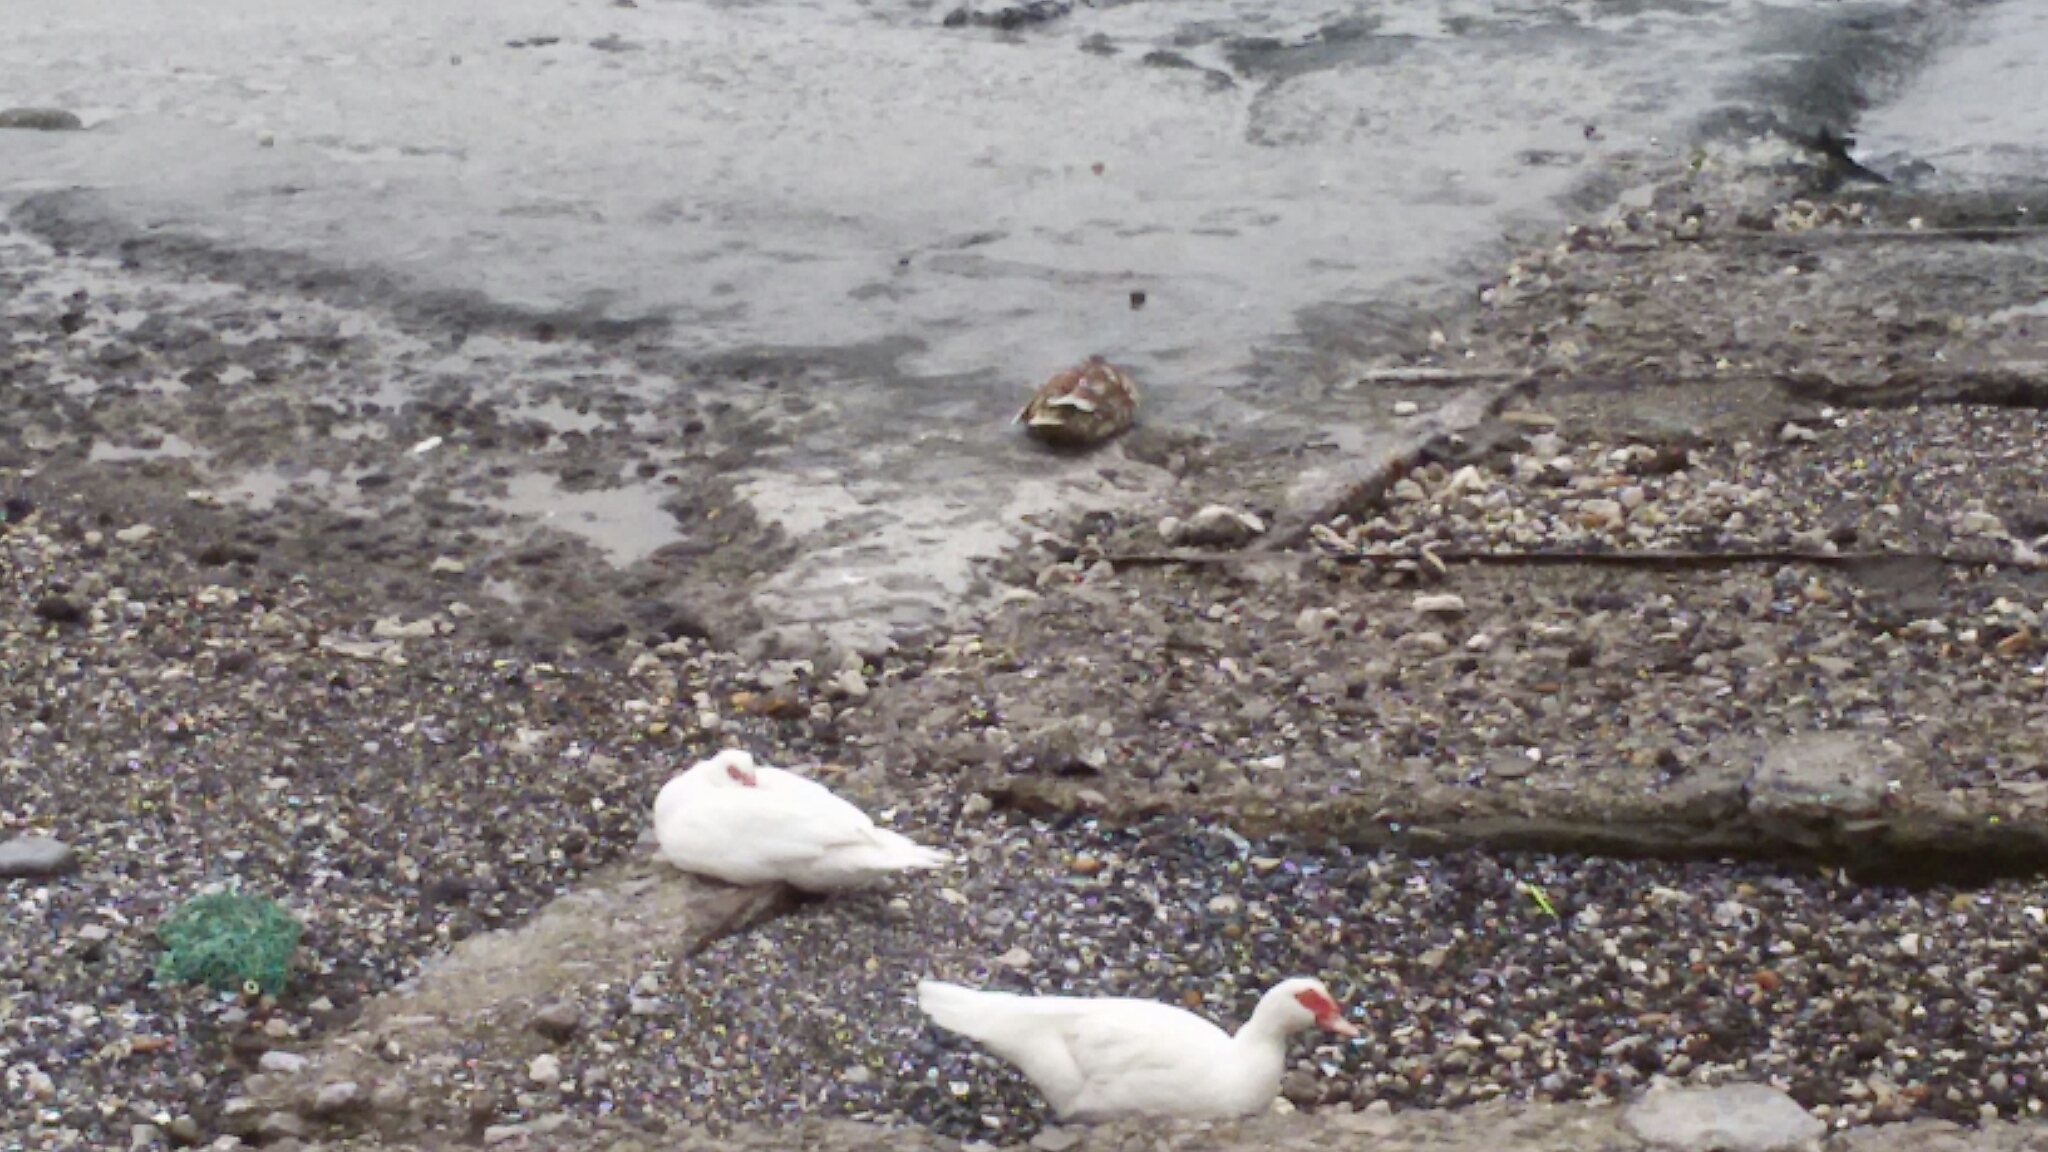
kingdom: Animalia
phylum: Chordata
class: Aves
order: Anseriformes
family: Anatidae
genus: Cairina
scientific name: Cairina moschata
